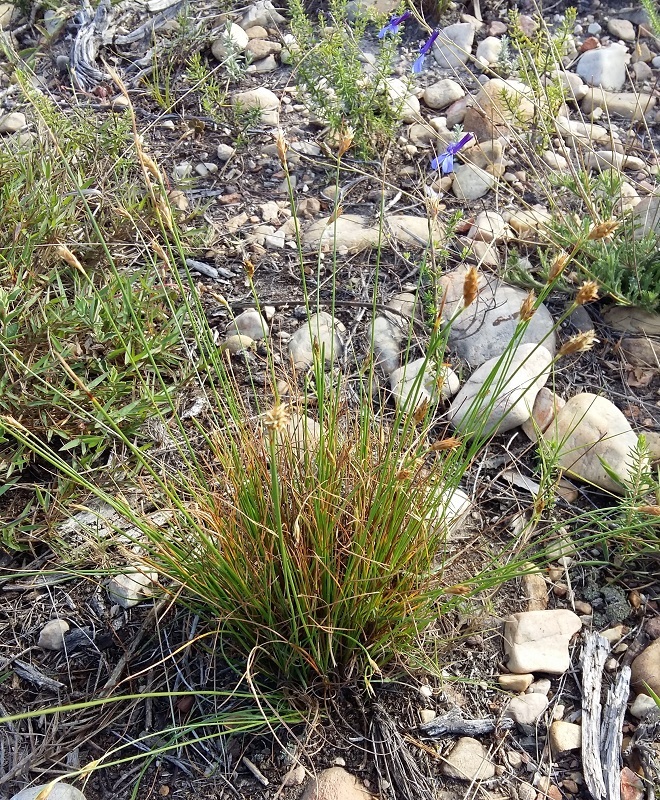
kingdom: Plantae
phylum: Tracheophyta
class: Liliopsida
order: Poales
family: Cyperaceae
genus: Ficinia
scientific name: Ficinia nigrescens
